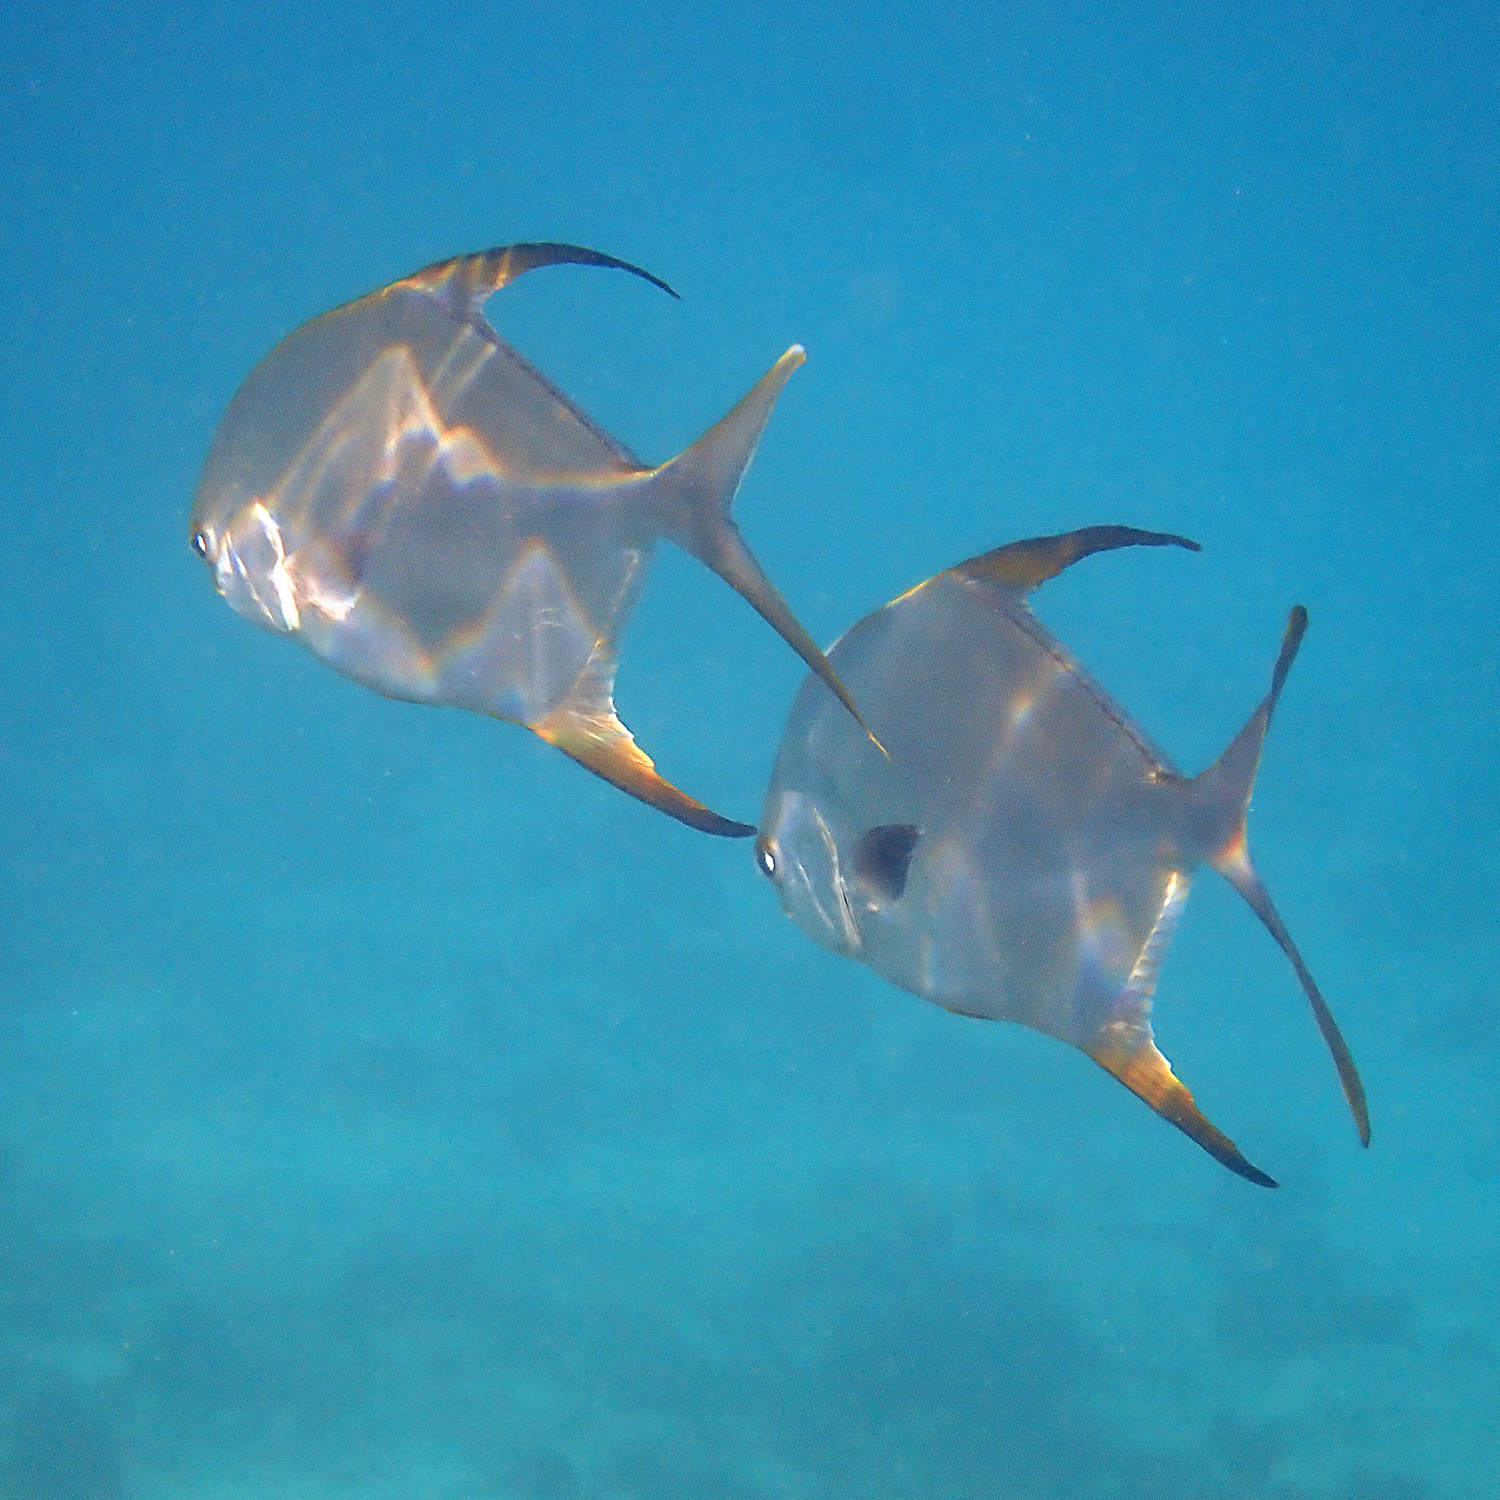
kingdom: Animalia
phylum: Chordata
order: Perciformes
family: Carangidae
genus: Trachinotus
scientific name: Trachinotus blochii
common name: Snubnose pompano
